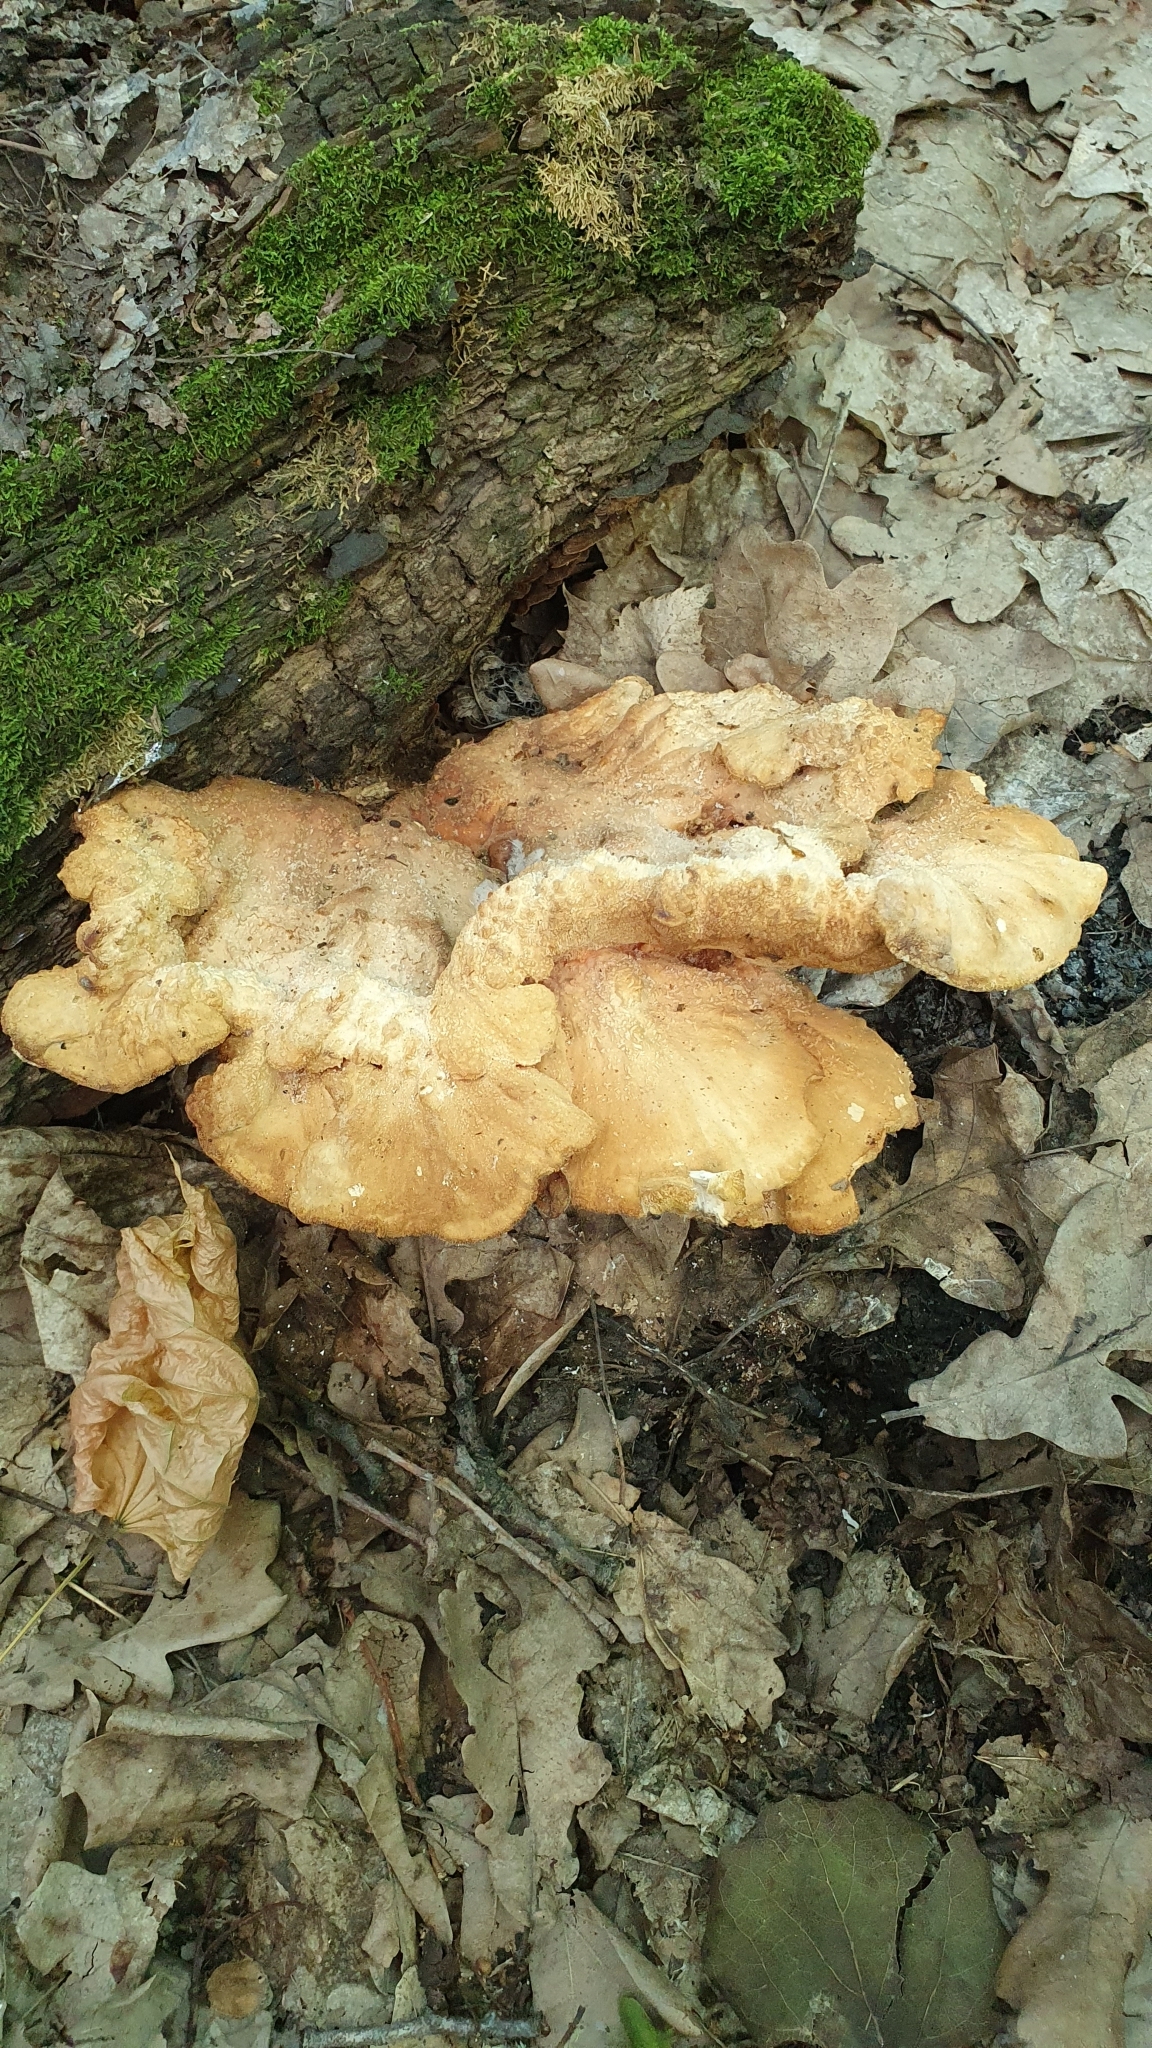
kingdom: Fungi
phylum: Basidiomycota
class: Agaricomycetes
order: Polyporales
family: Laetiporaceae
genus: Laetiporus
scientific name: Laetiporus sulphureus
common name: Chicken of the woods
